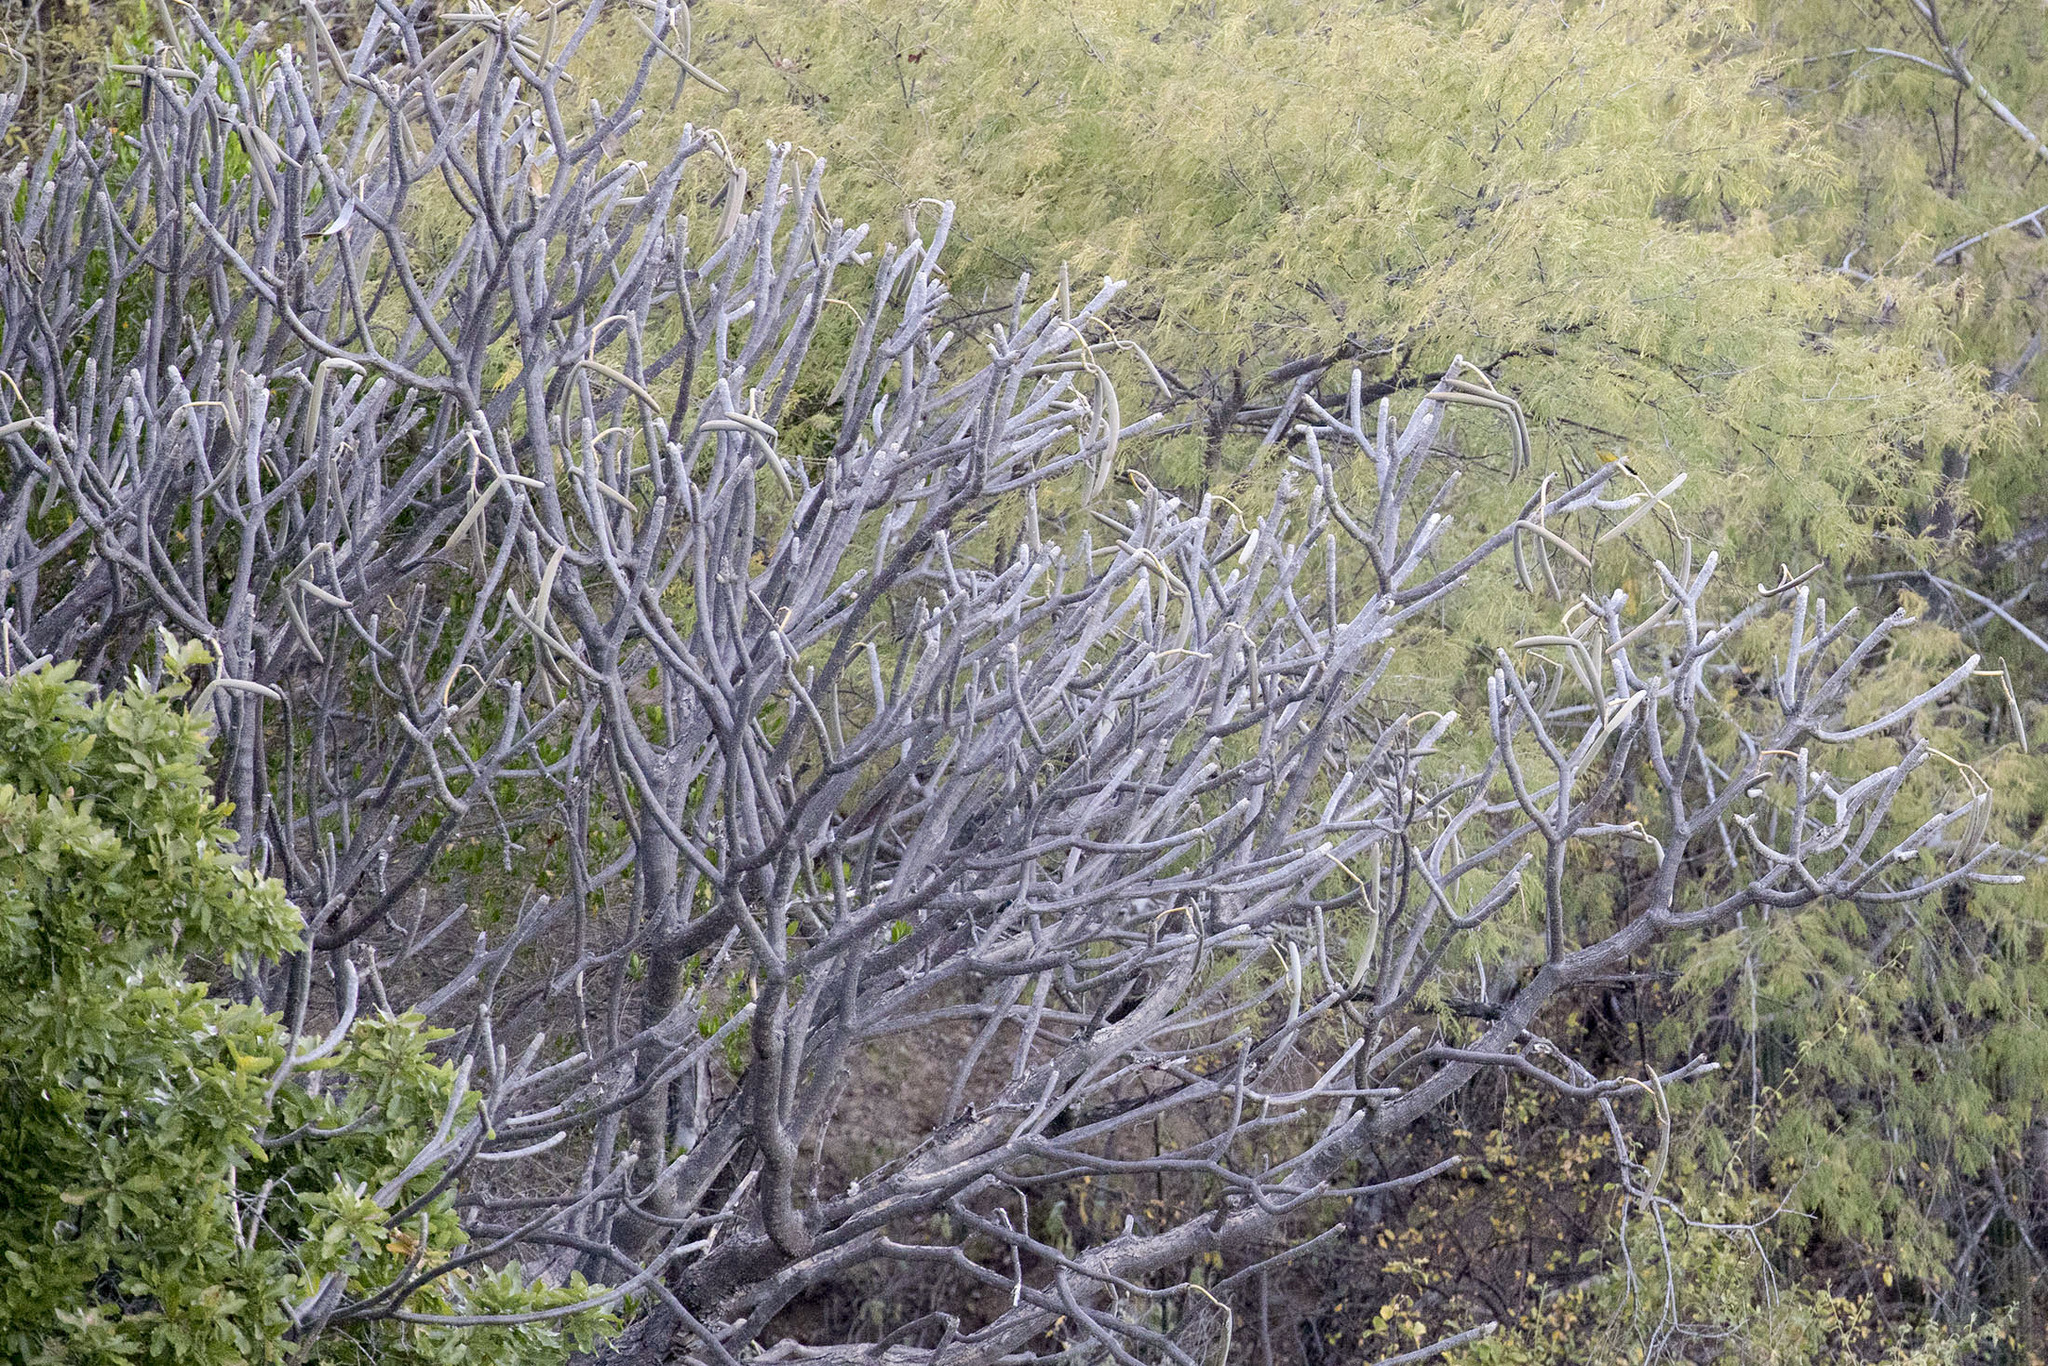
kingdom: Plantae
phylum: Tracheophyta
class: Magnoliopsida
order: Gentianales
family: Apocynaceae
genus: Plumeria
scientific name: Plumeria rubra
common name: Pagoda-tree
